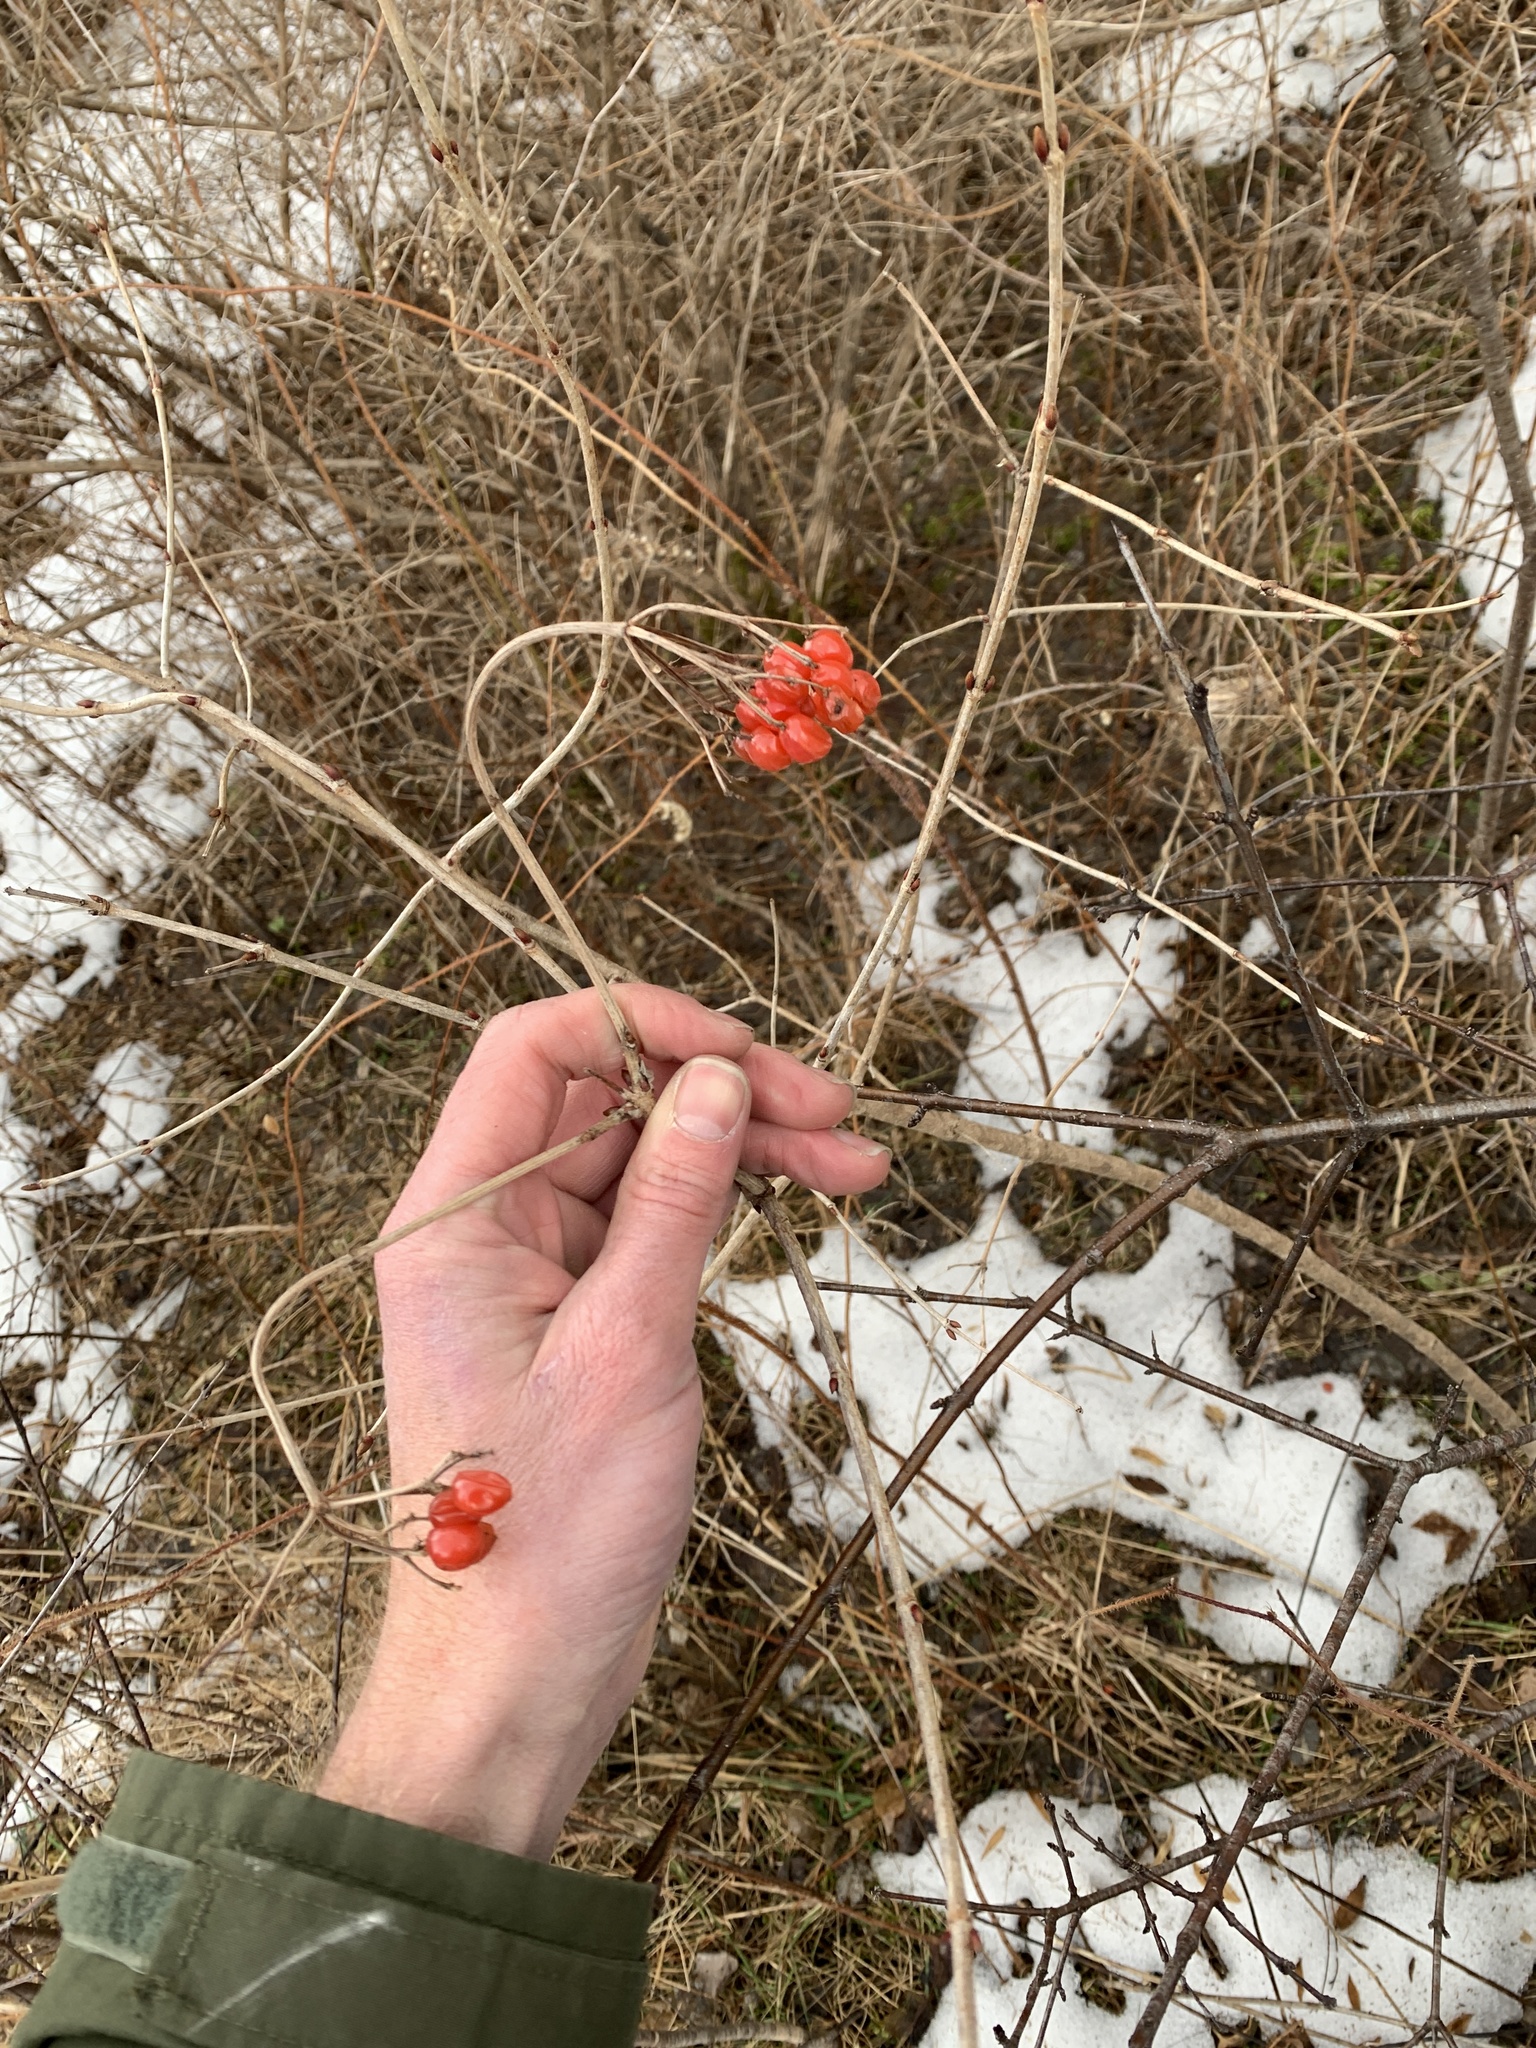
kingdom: Plantae
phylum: Tracheophyta
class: Magnoliopsida
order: Dipsacales
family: Viburnaceae
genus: Viburnum
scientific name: Viburnum opulus
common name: Guelder-rose
